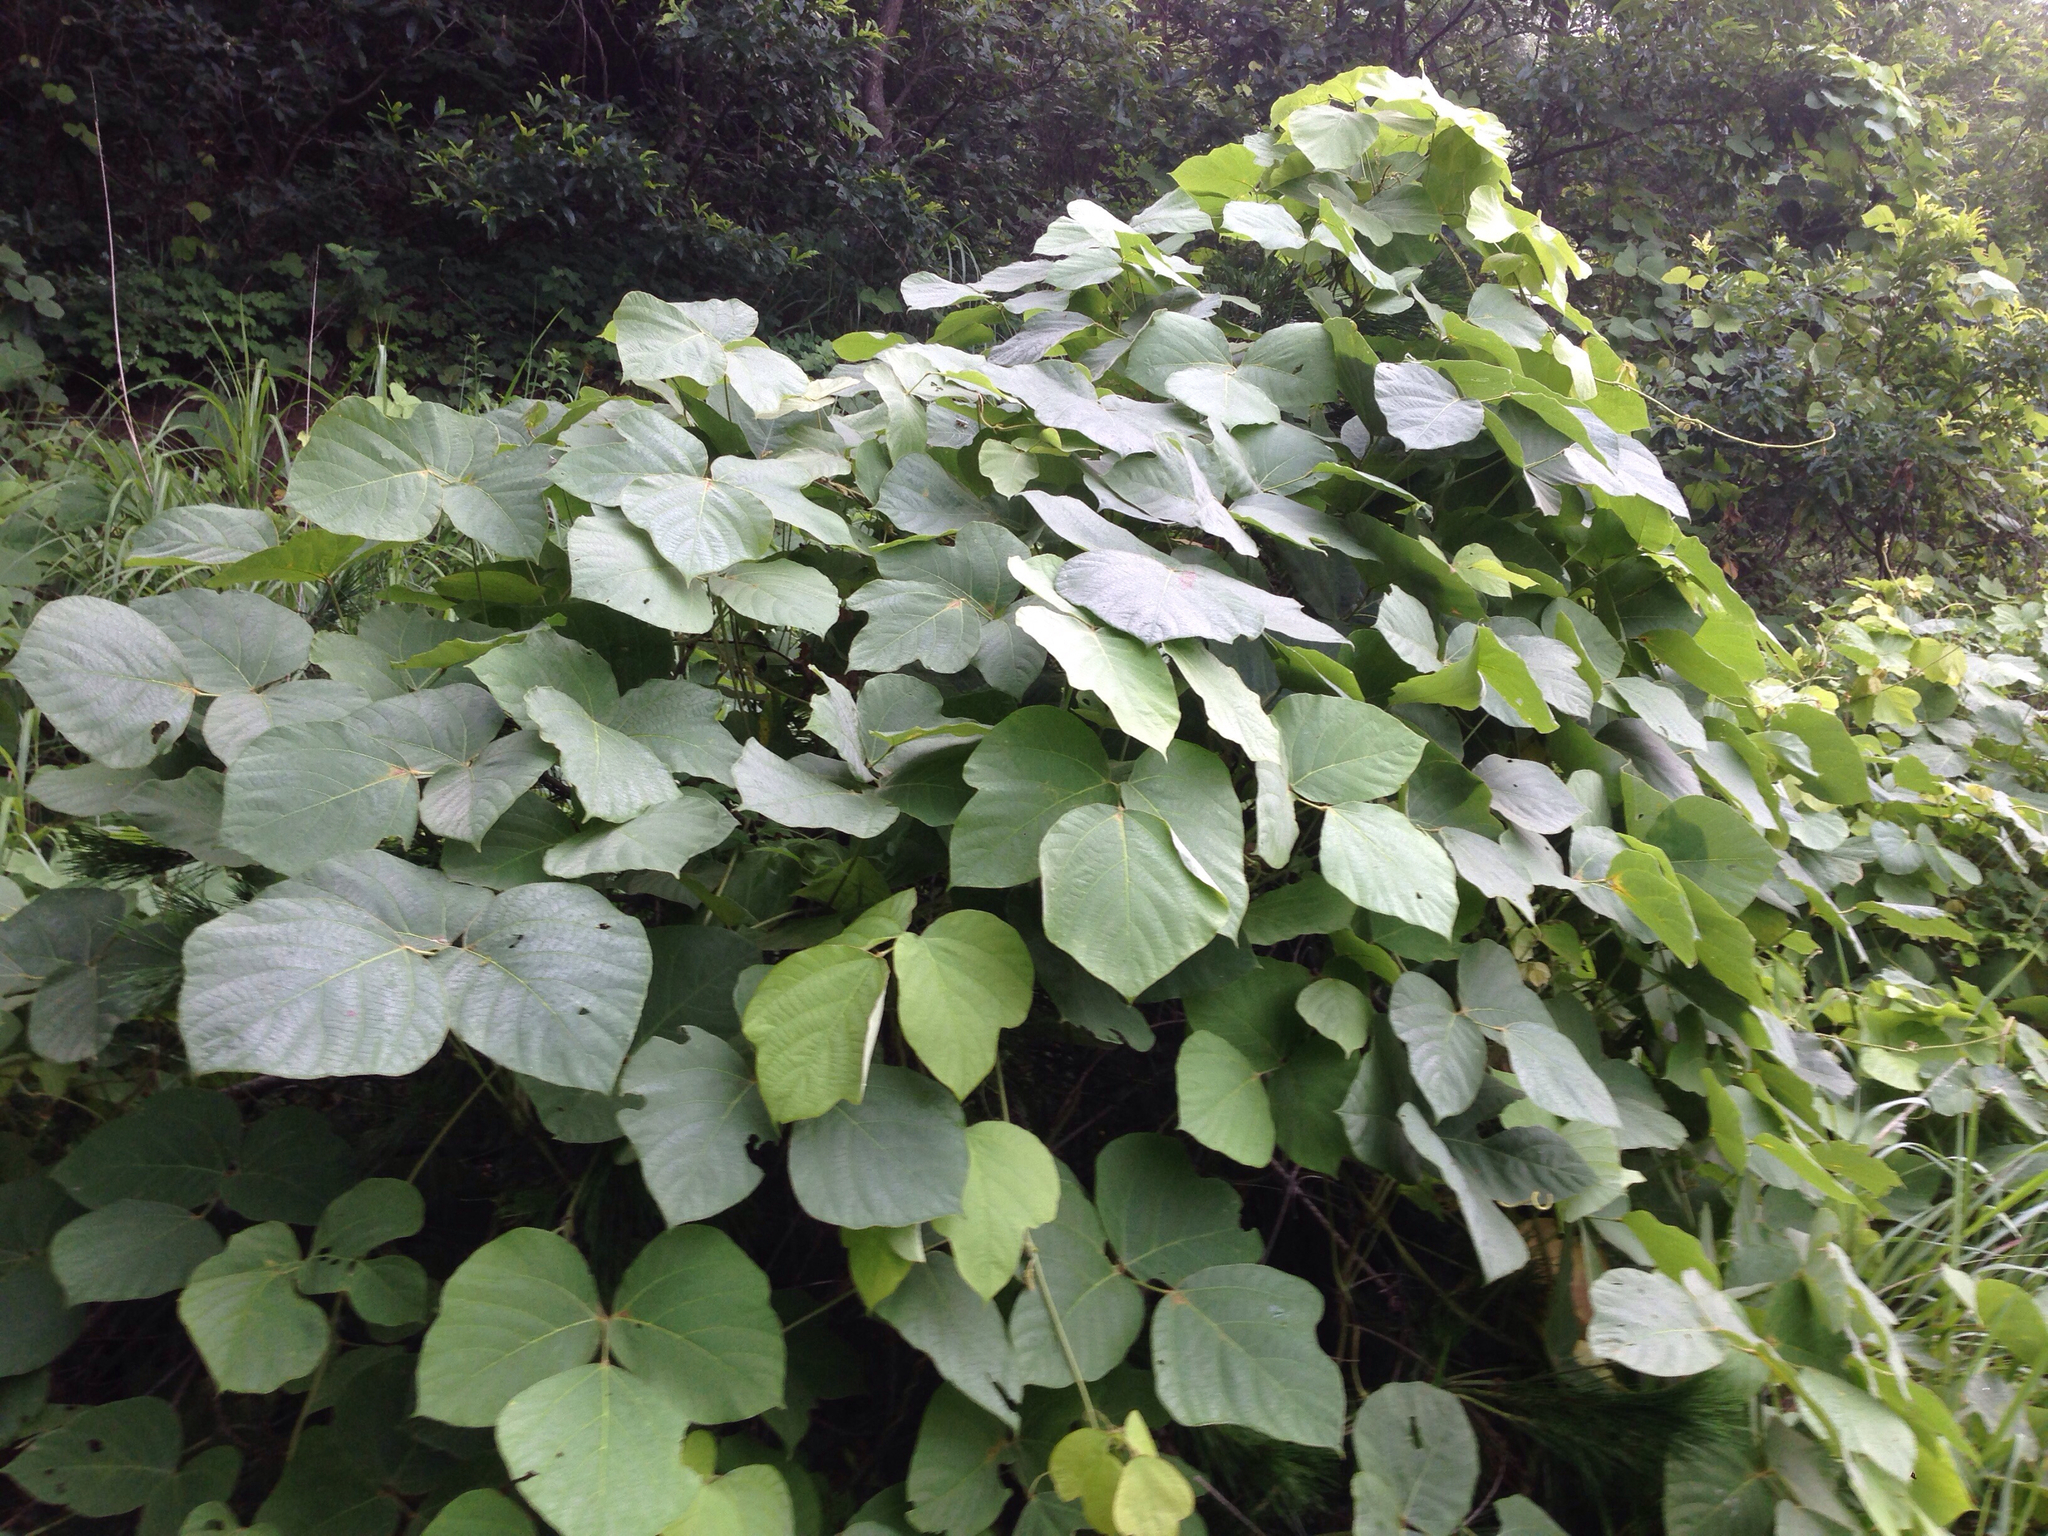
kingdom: Plantae
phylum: Tracheophyta
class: Magnoliopsida
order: Fabales
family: Fabaceae
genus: Pueraria
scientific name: Pueraria montana
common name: Kudzu
